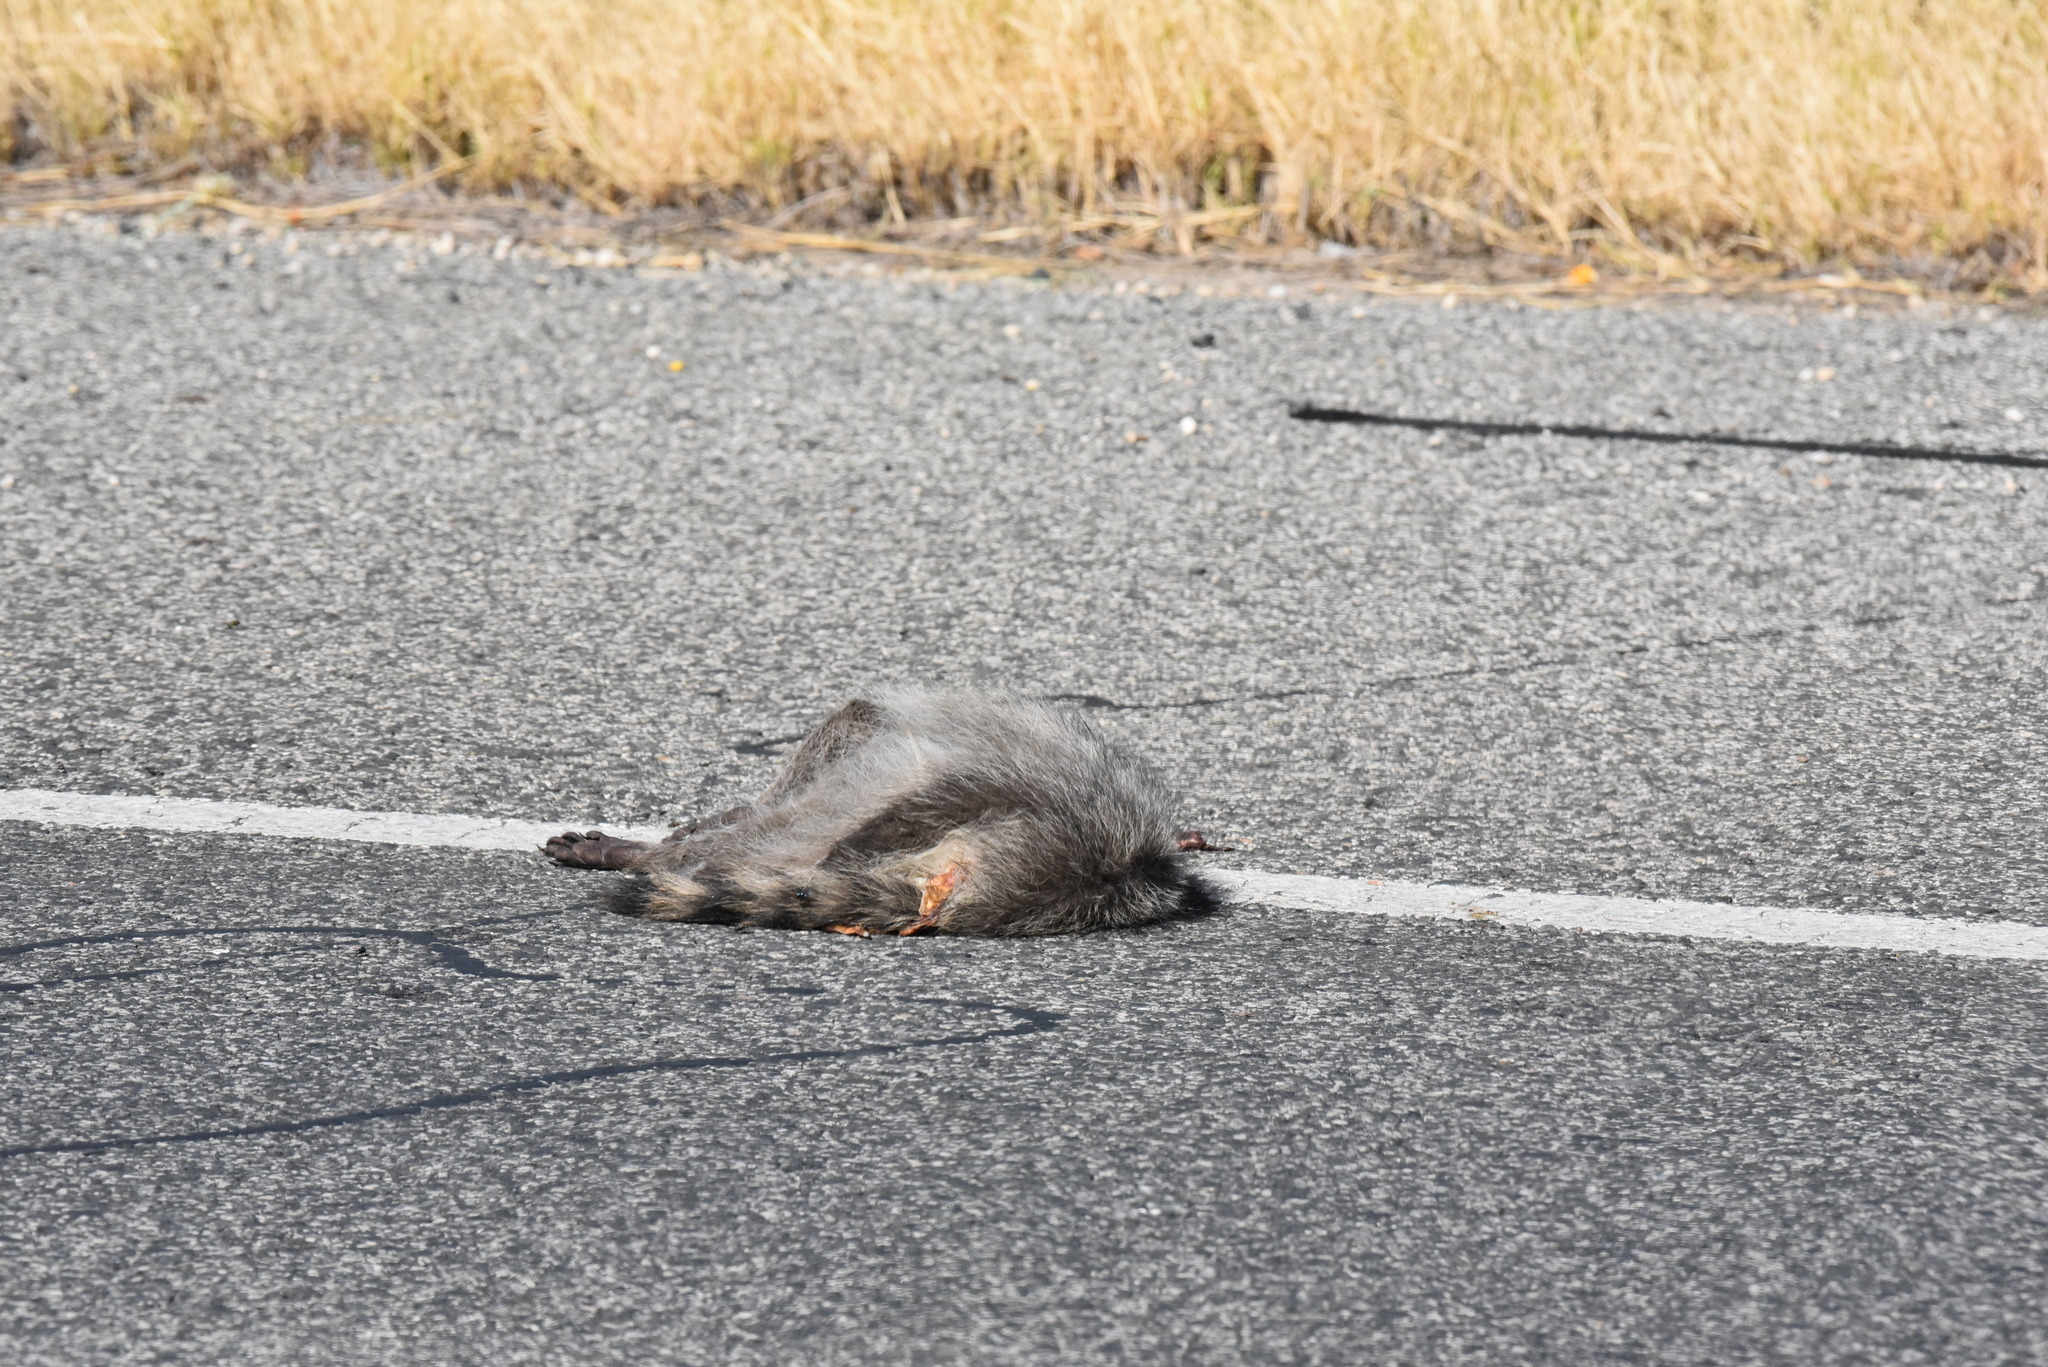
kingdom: Animalia
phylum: Chordata
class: Mammalia
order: Carnivora
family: Procyonidae
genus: Procyon
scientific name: Procyon lotor
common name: Raccoon
